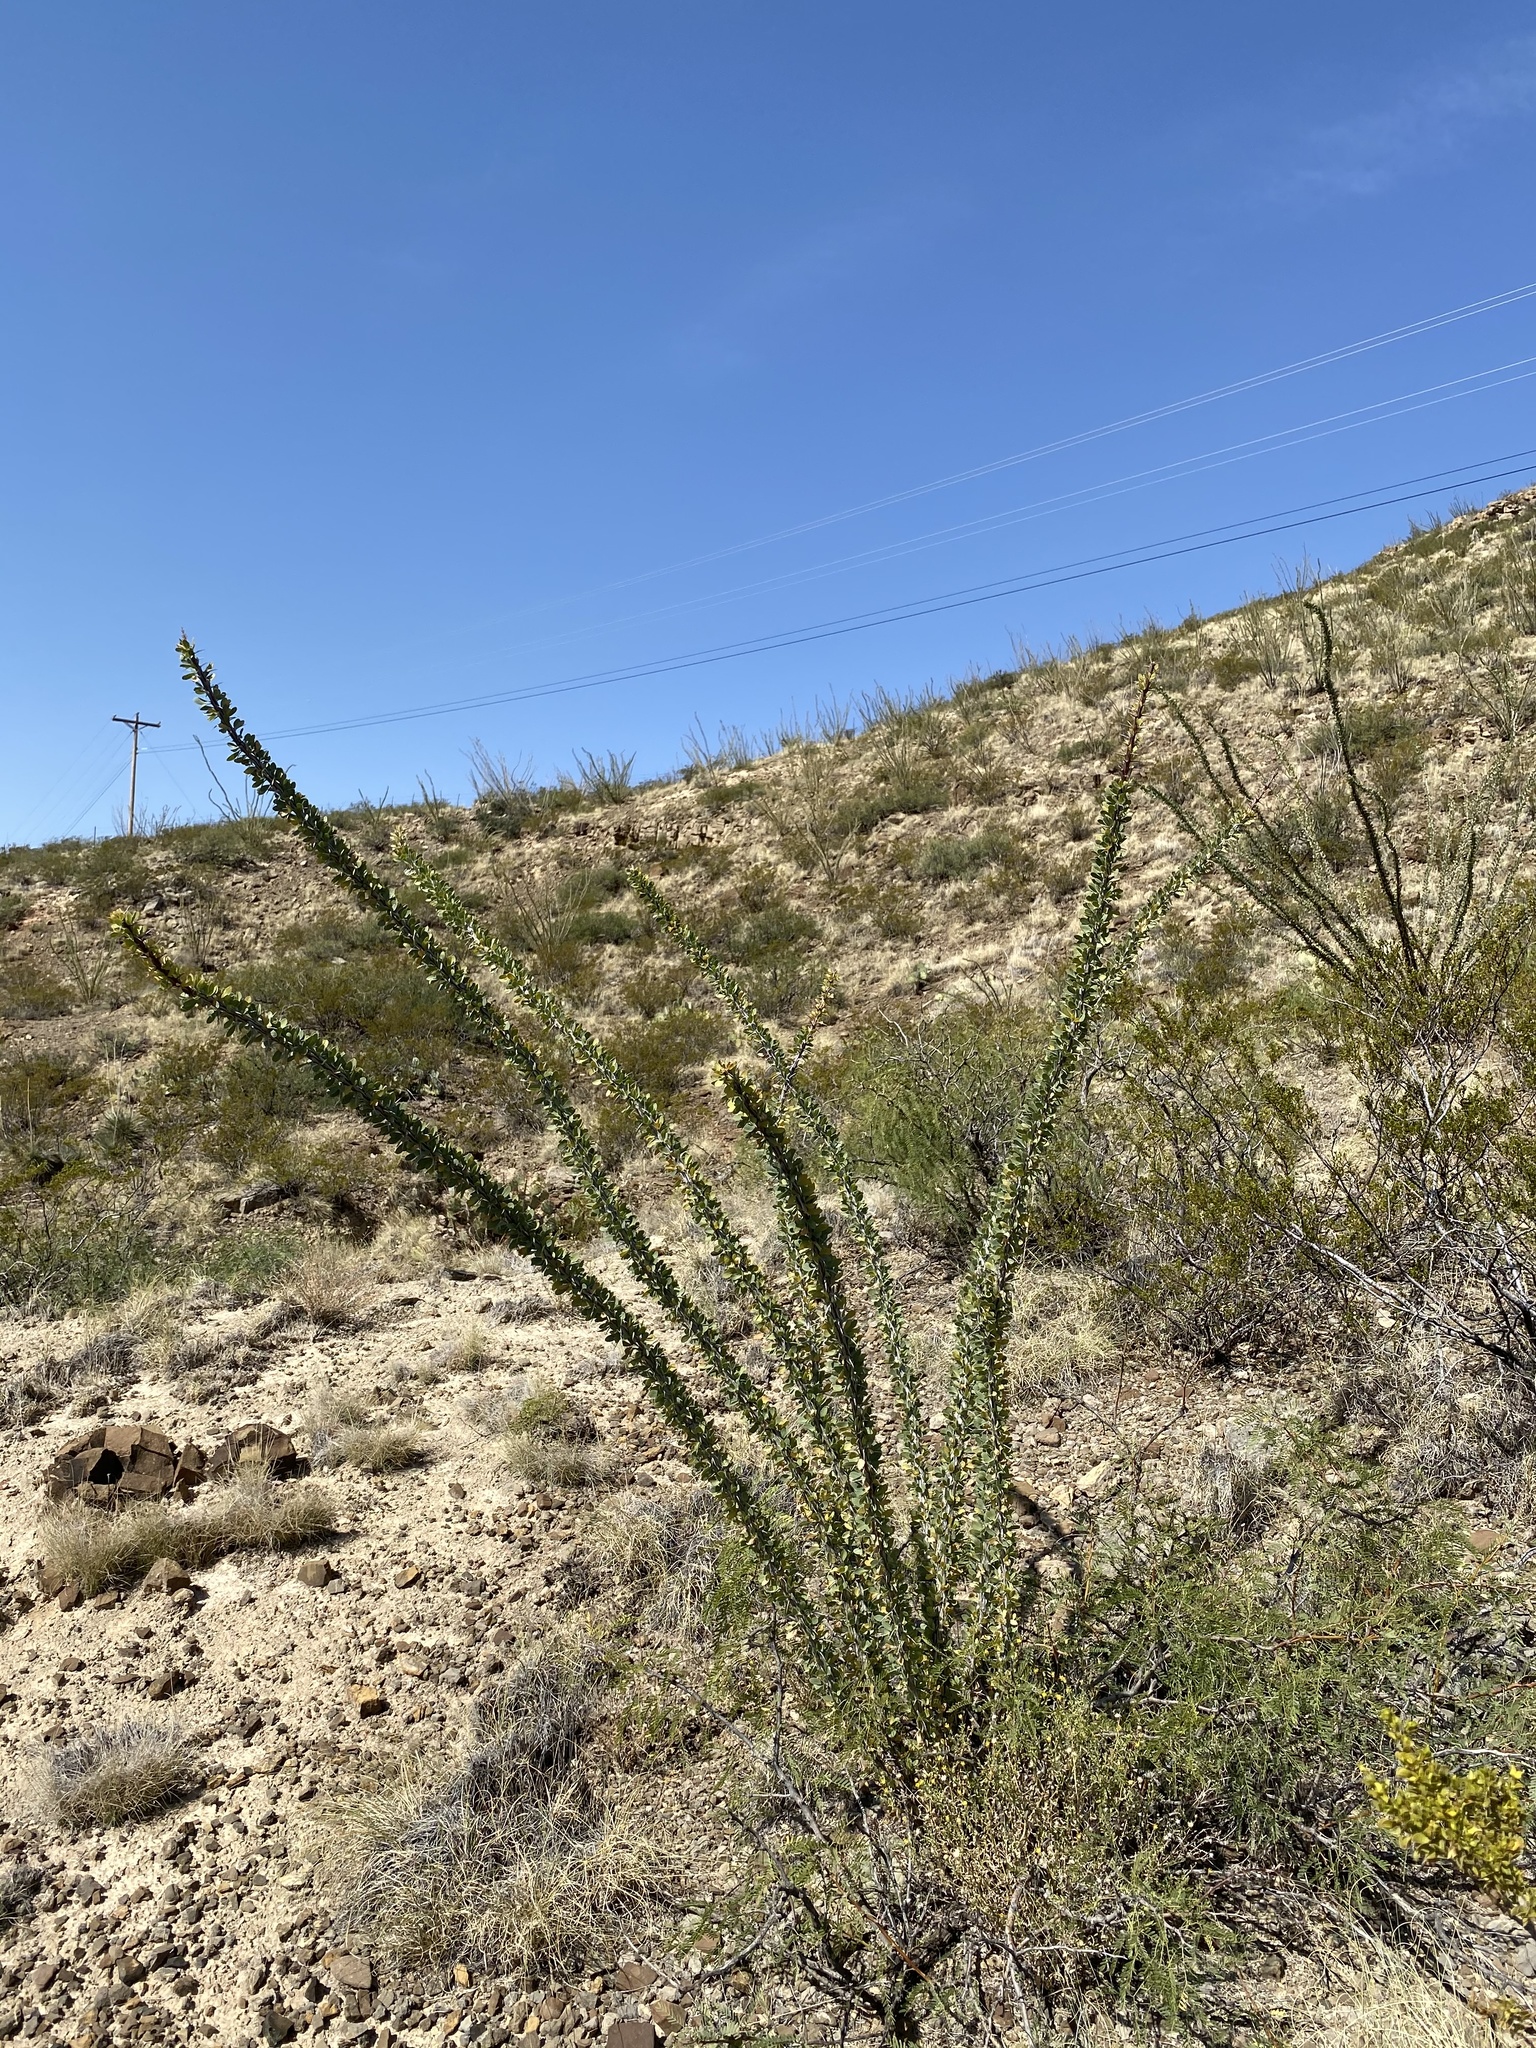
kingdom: Plantae
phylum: Tracheophyta
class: Magnoliopsida
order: Ericales
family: Fouquieriaceae
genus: Fouquieria
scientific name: Fouquieria splendens
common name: Vine-cactus
